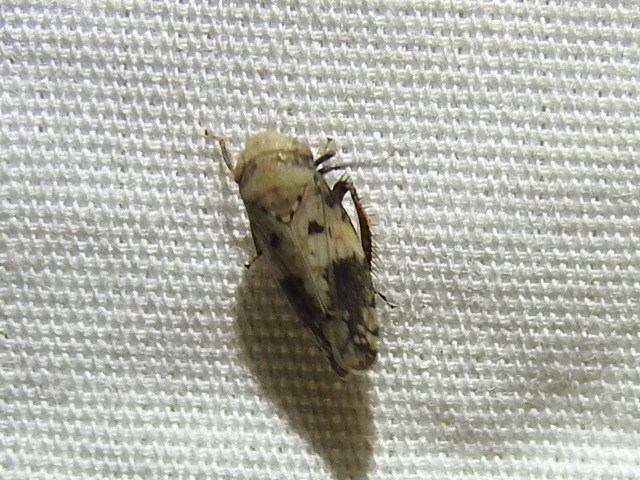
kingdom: Animalia
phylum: Arthropoda
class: Insecta
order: Hemiptera
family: Cicadellidae
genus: Menosoma
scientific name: Menosoma cinctum
